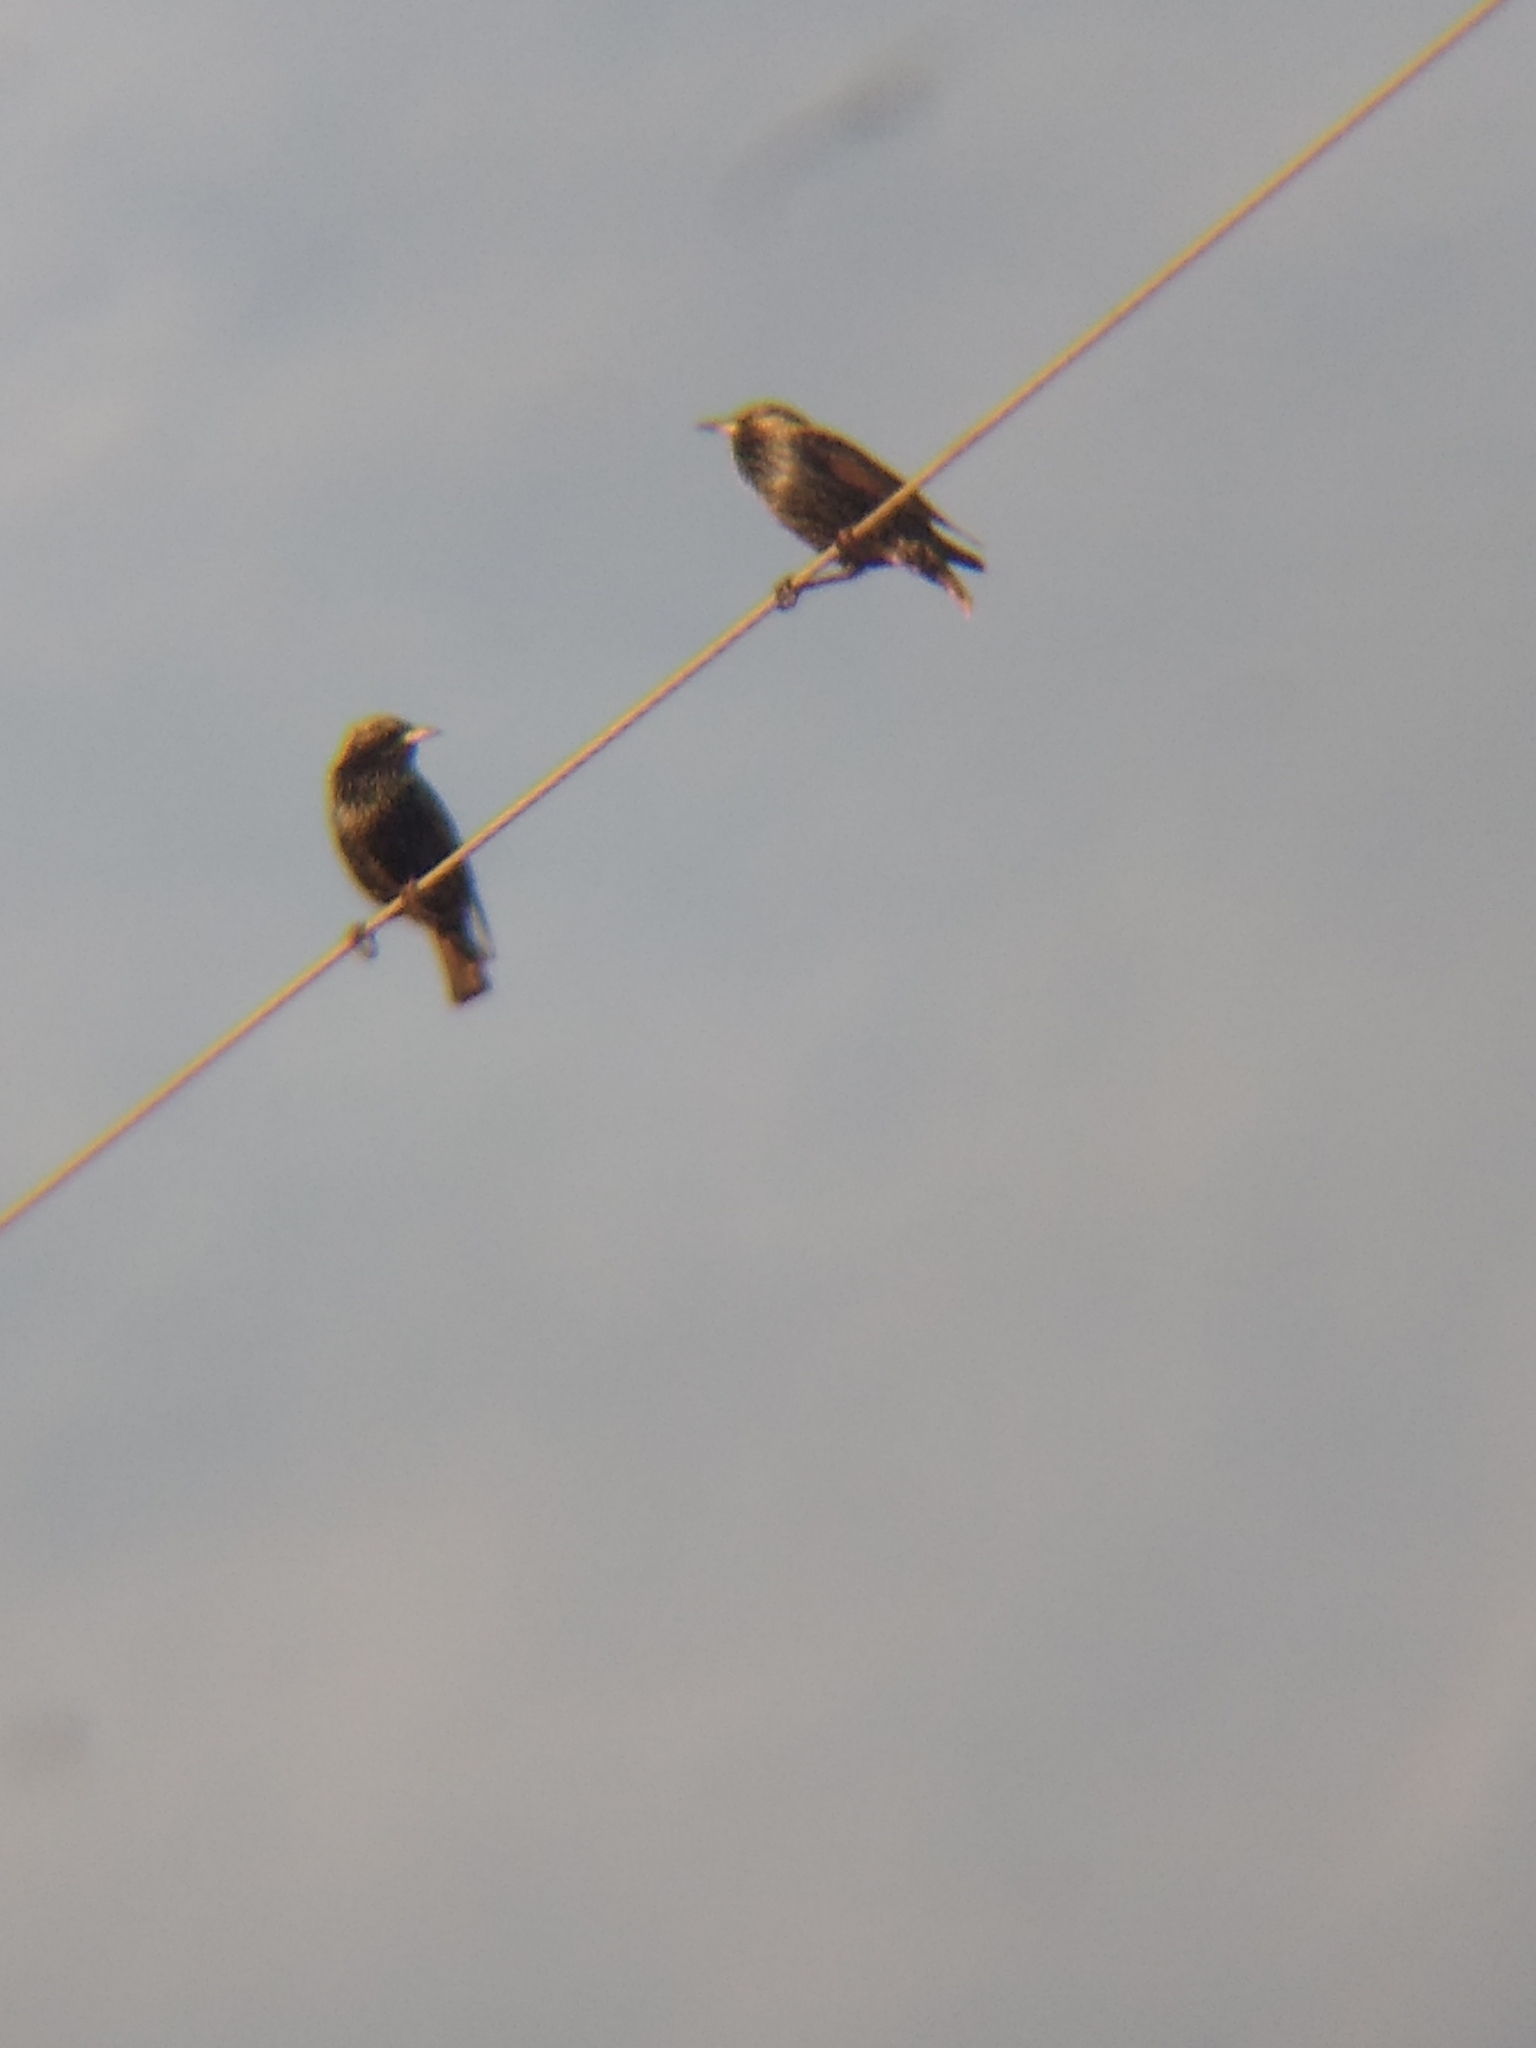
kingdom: Animalia
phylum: Chordata
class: Aves
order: Passeriformes
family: Sturnidae
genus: Sturnus
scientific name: Sturnus vulgaris
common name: Common starling
